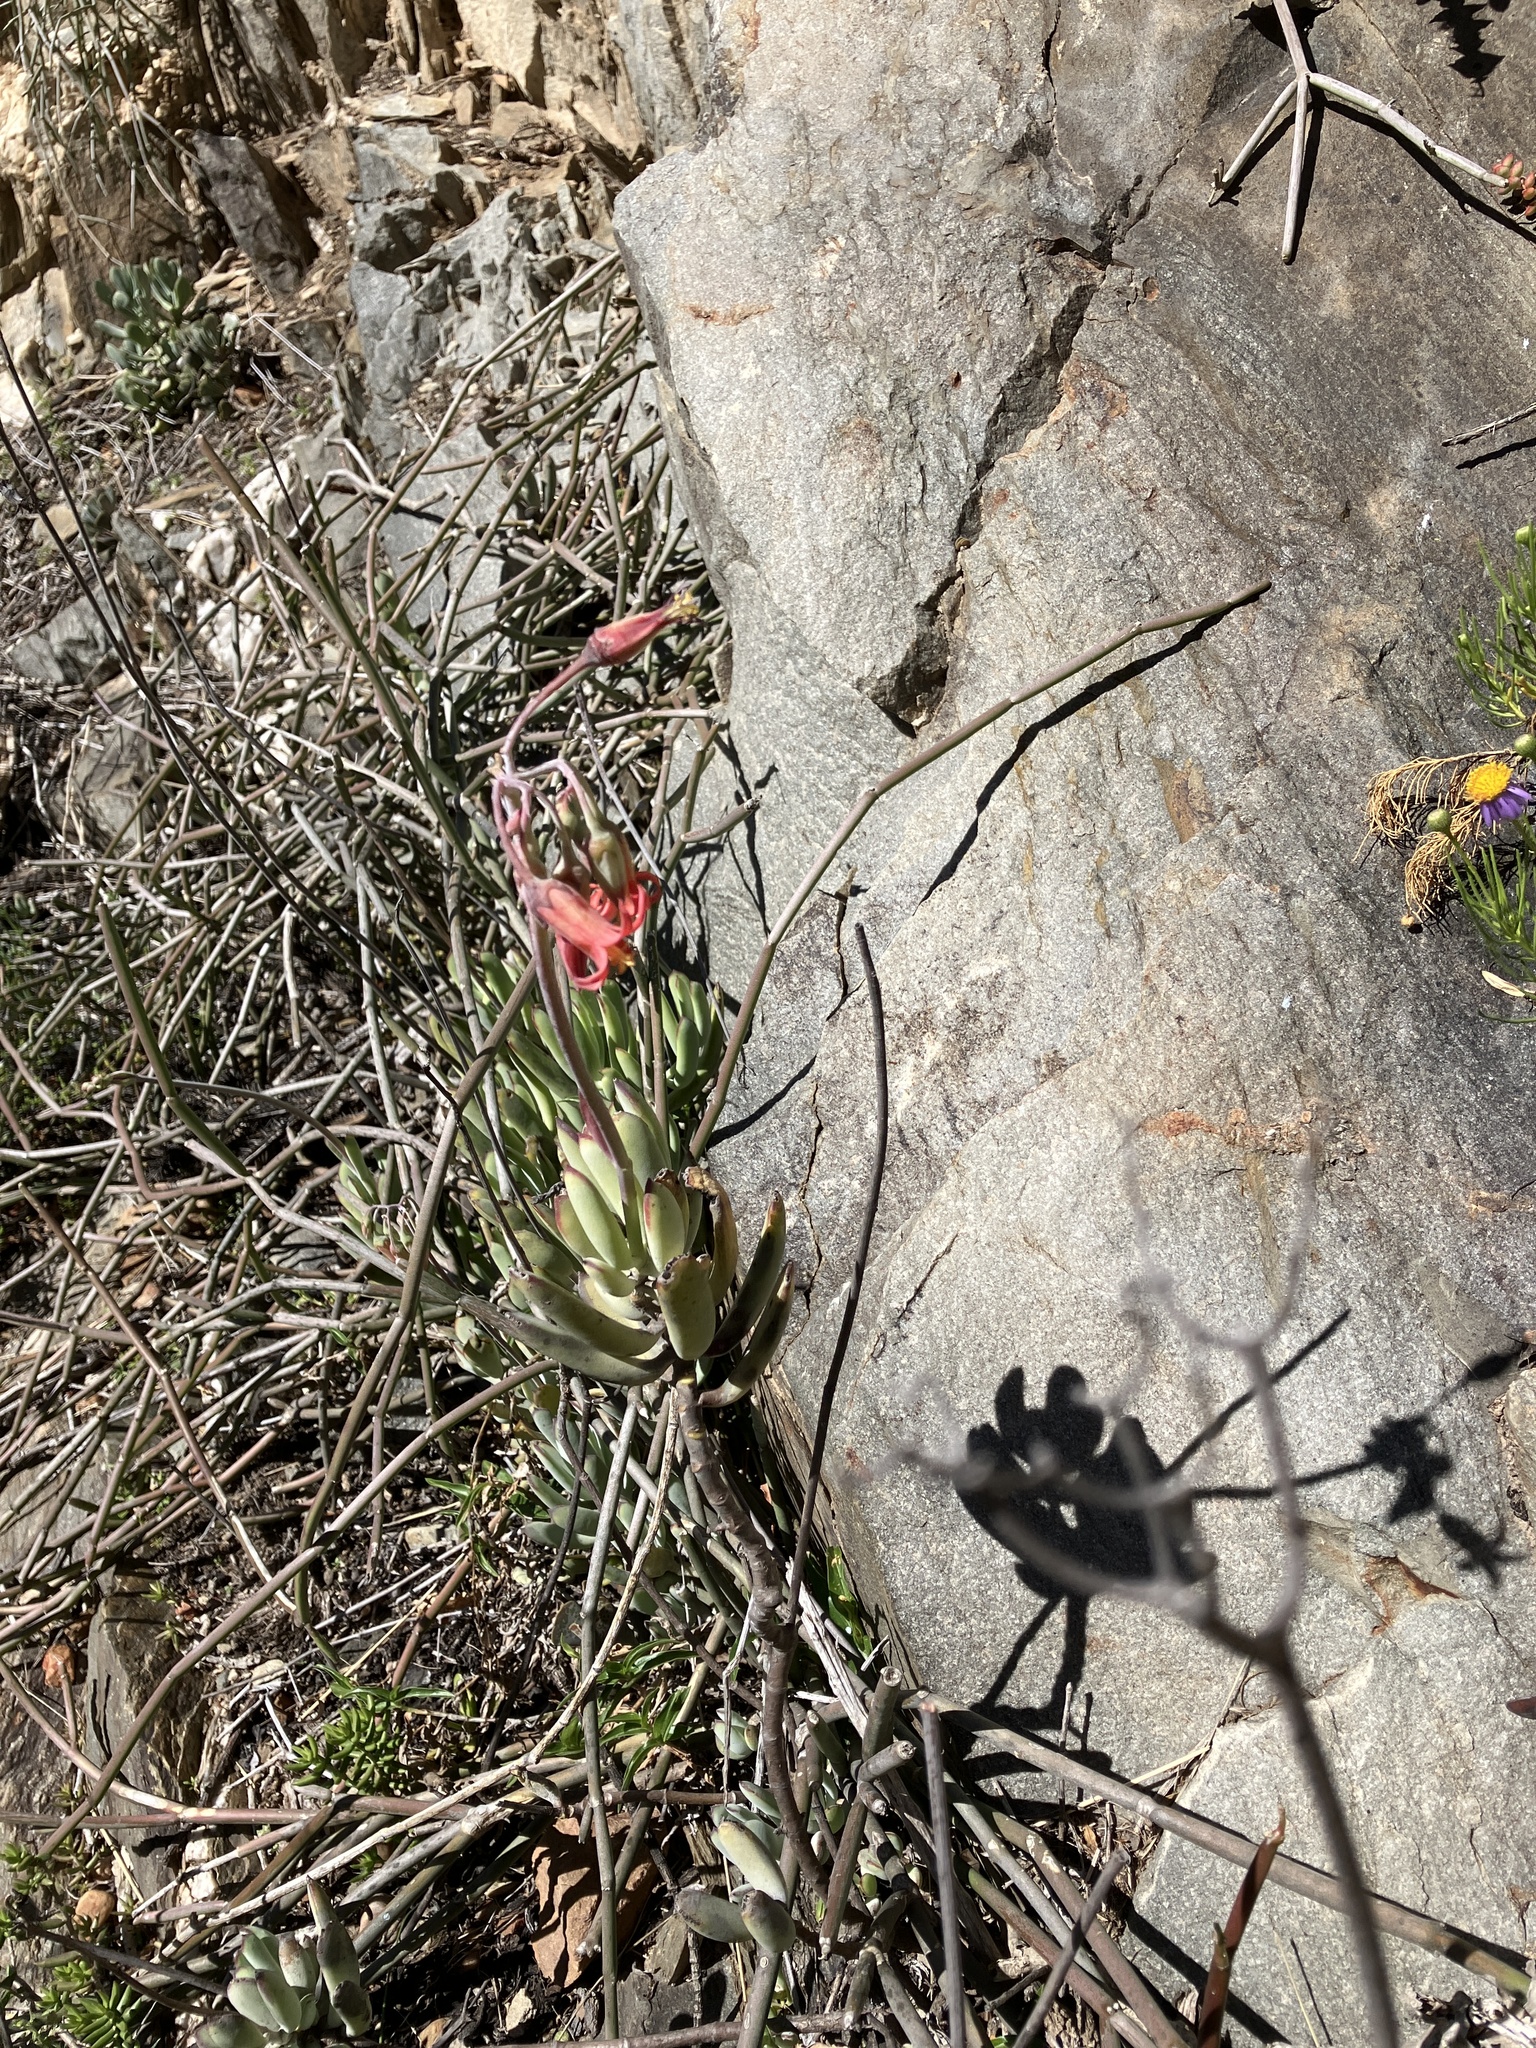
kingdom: Plantae
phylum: Tracheophyta
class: Magnoliopsida
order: Saxifragales
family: Crassulaceae
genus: Cotyledon
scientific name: Cotyledon orbiculata
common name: Pig's ear
